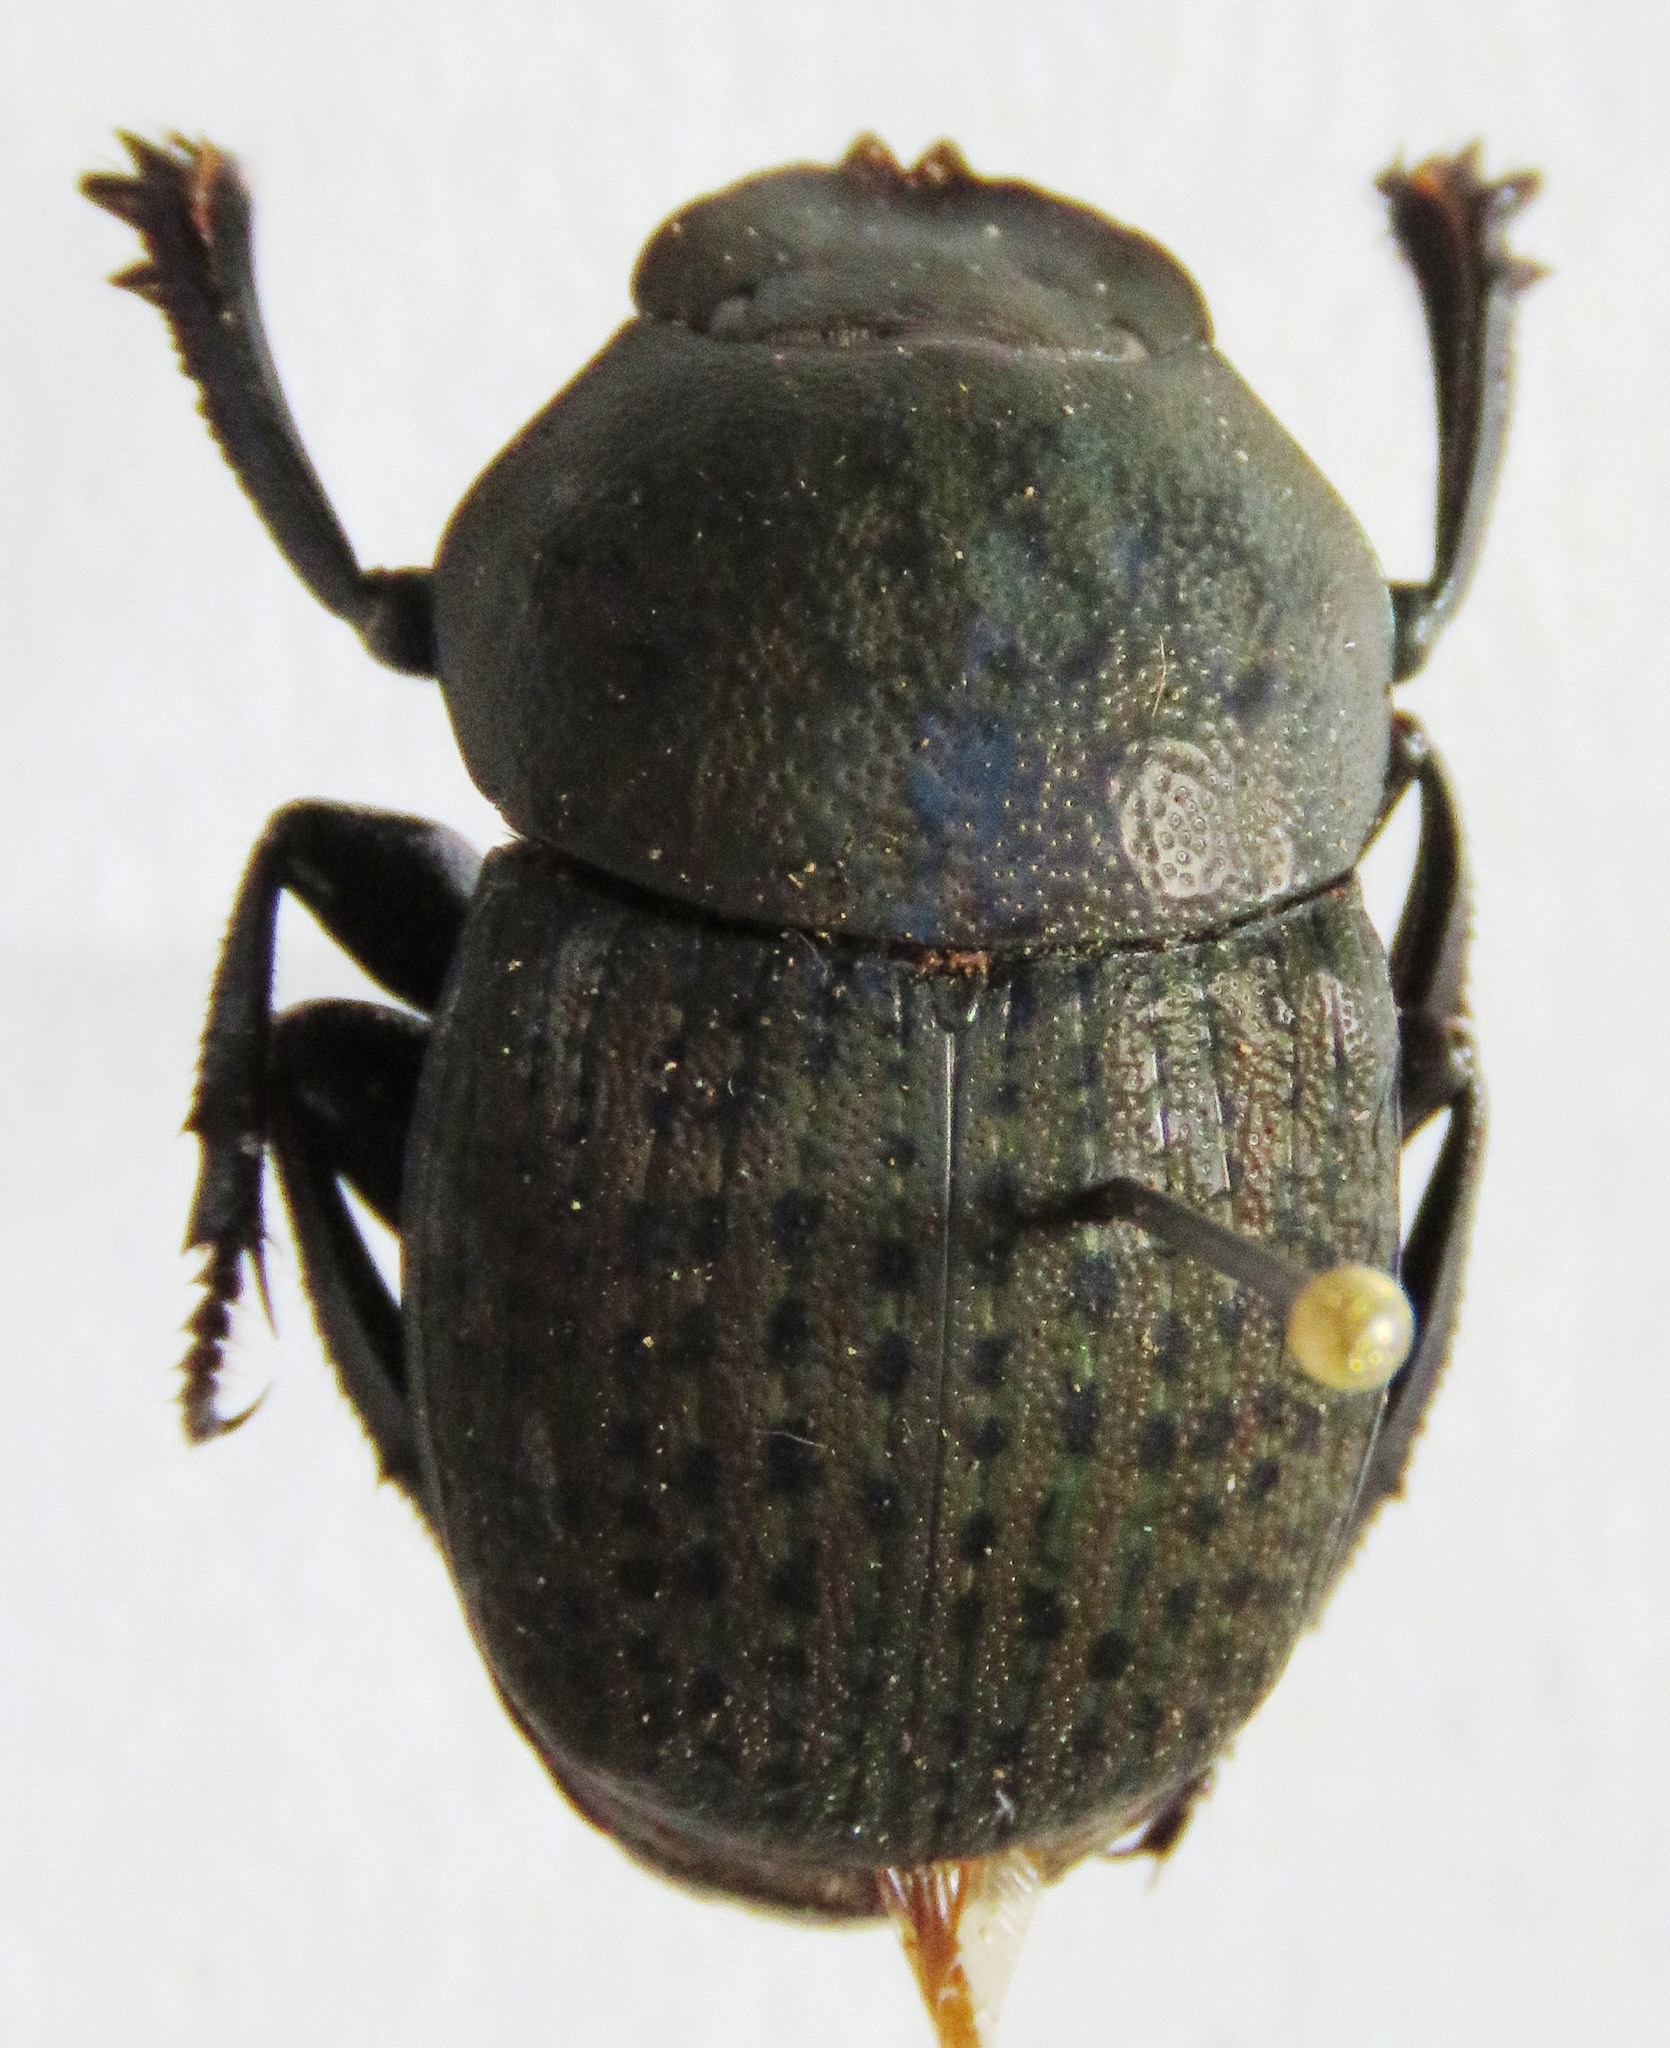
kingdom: Animalia
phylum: Arthropoda
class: Insecta
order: Coleoptera
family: Scarabaeidae
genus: Megathoposoma
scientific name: Megathoposoma candezei
